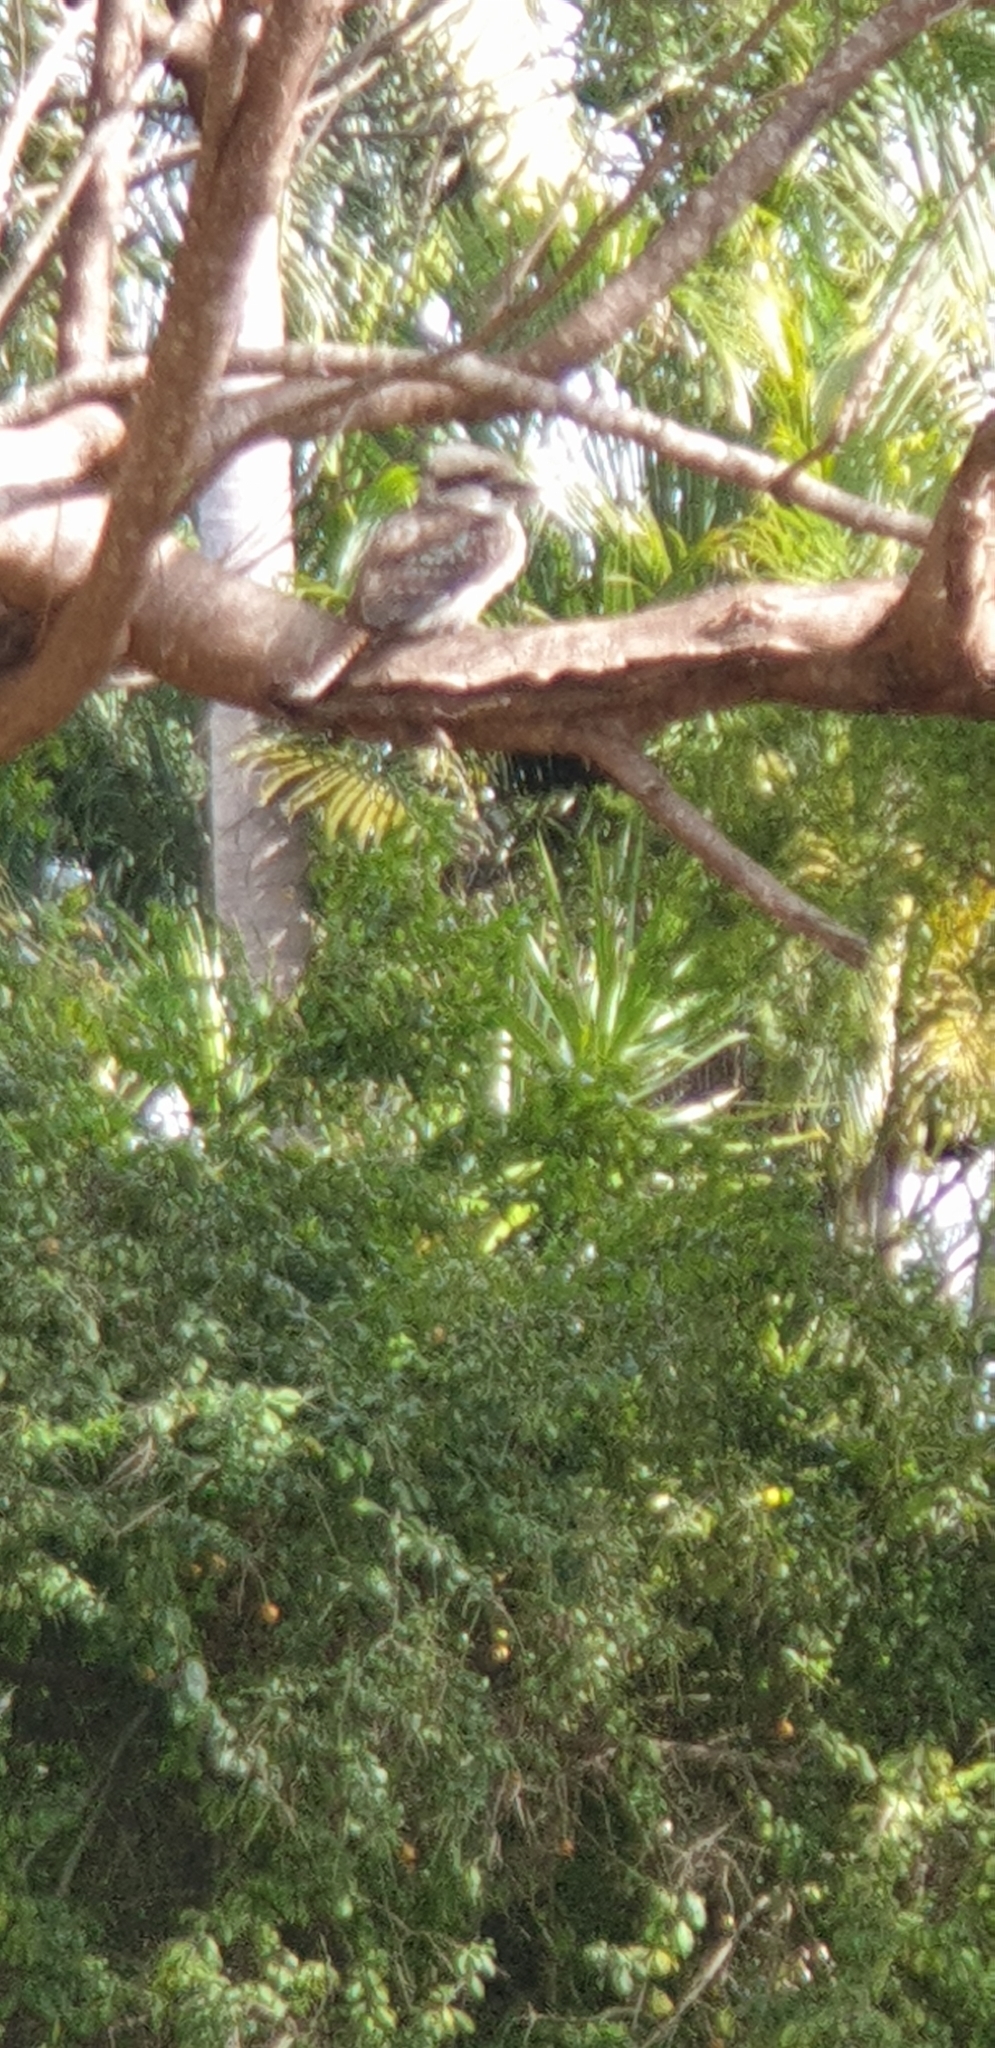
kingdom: Animalia
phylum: Chordata
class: Aves
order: Coraciiformes
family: Alcedinidae
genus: Dacelo
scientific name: Dacelo novaeguineae
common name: Laughing kookaburra
